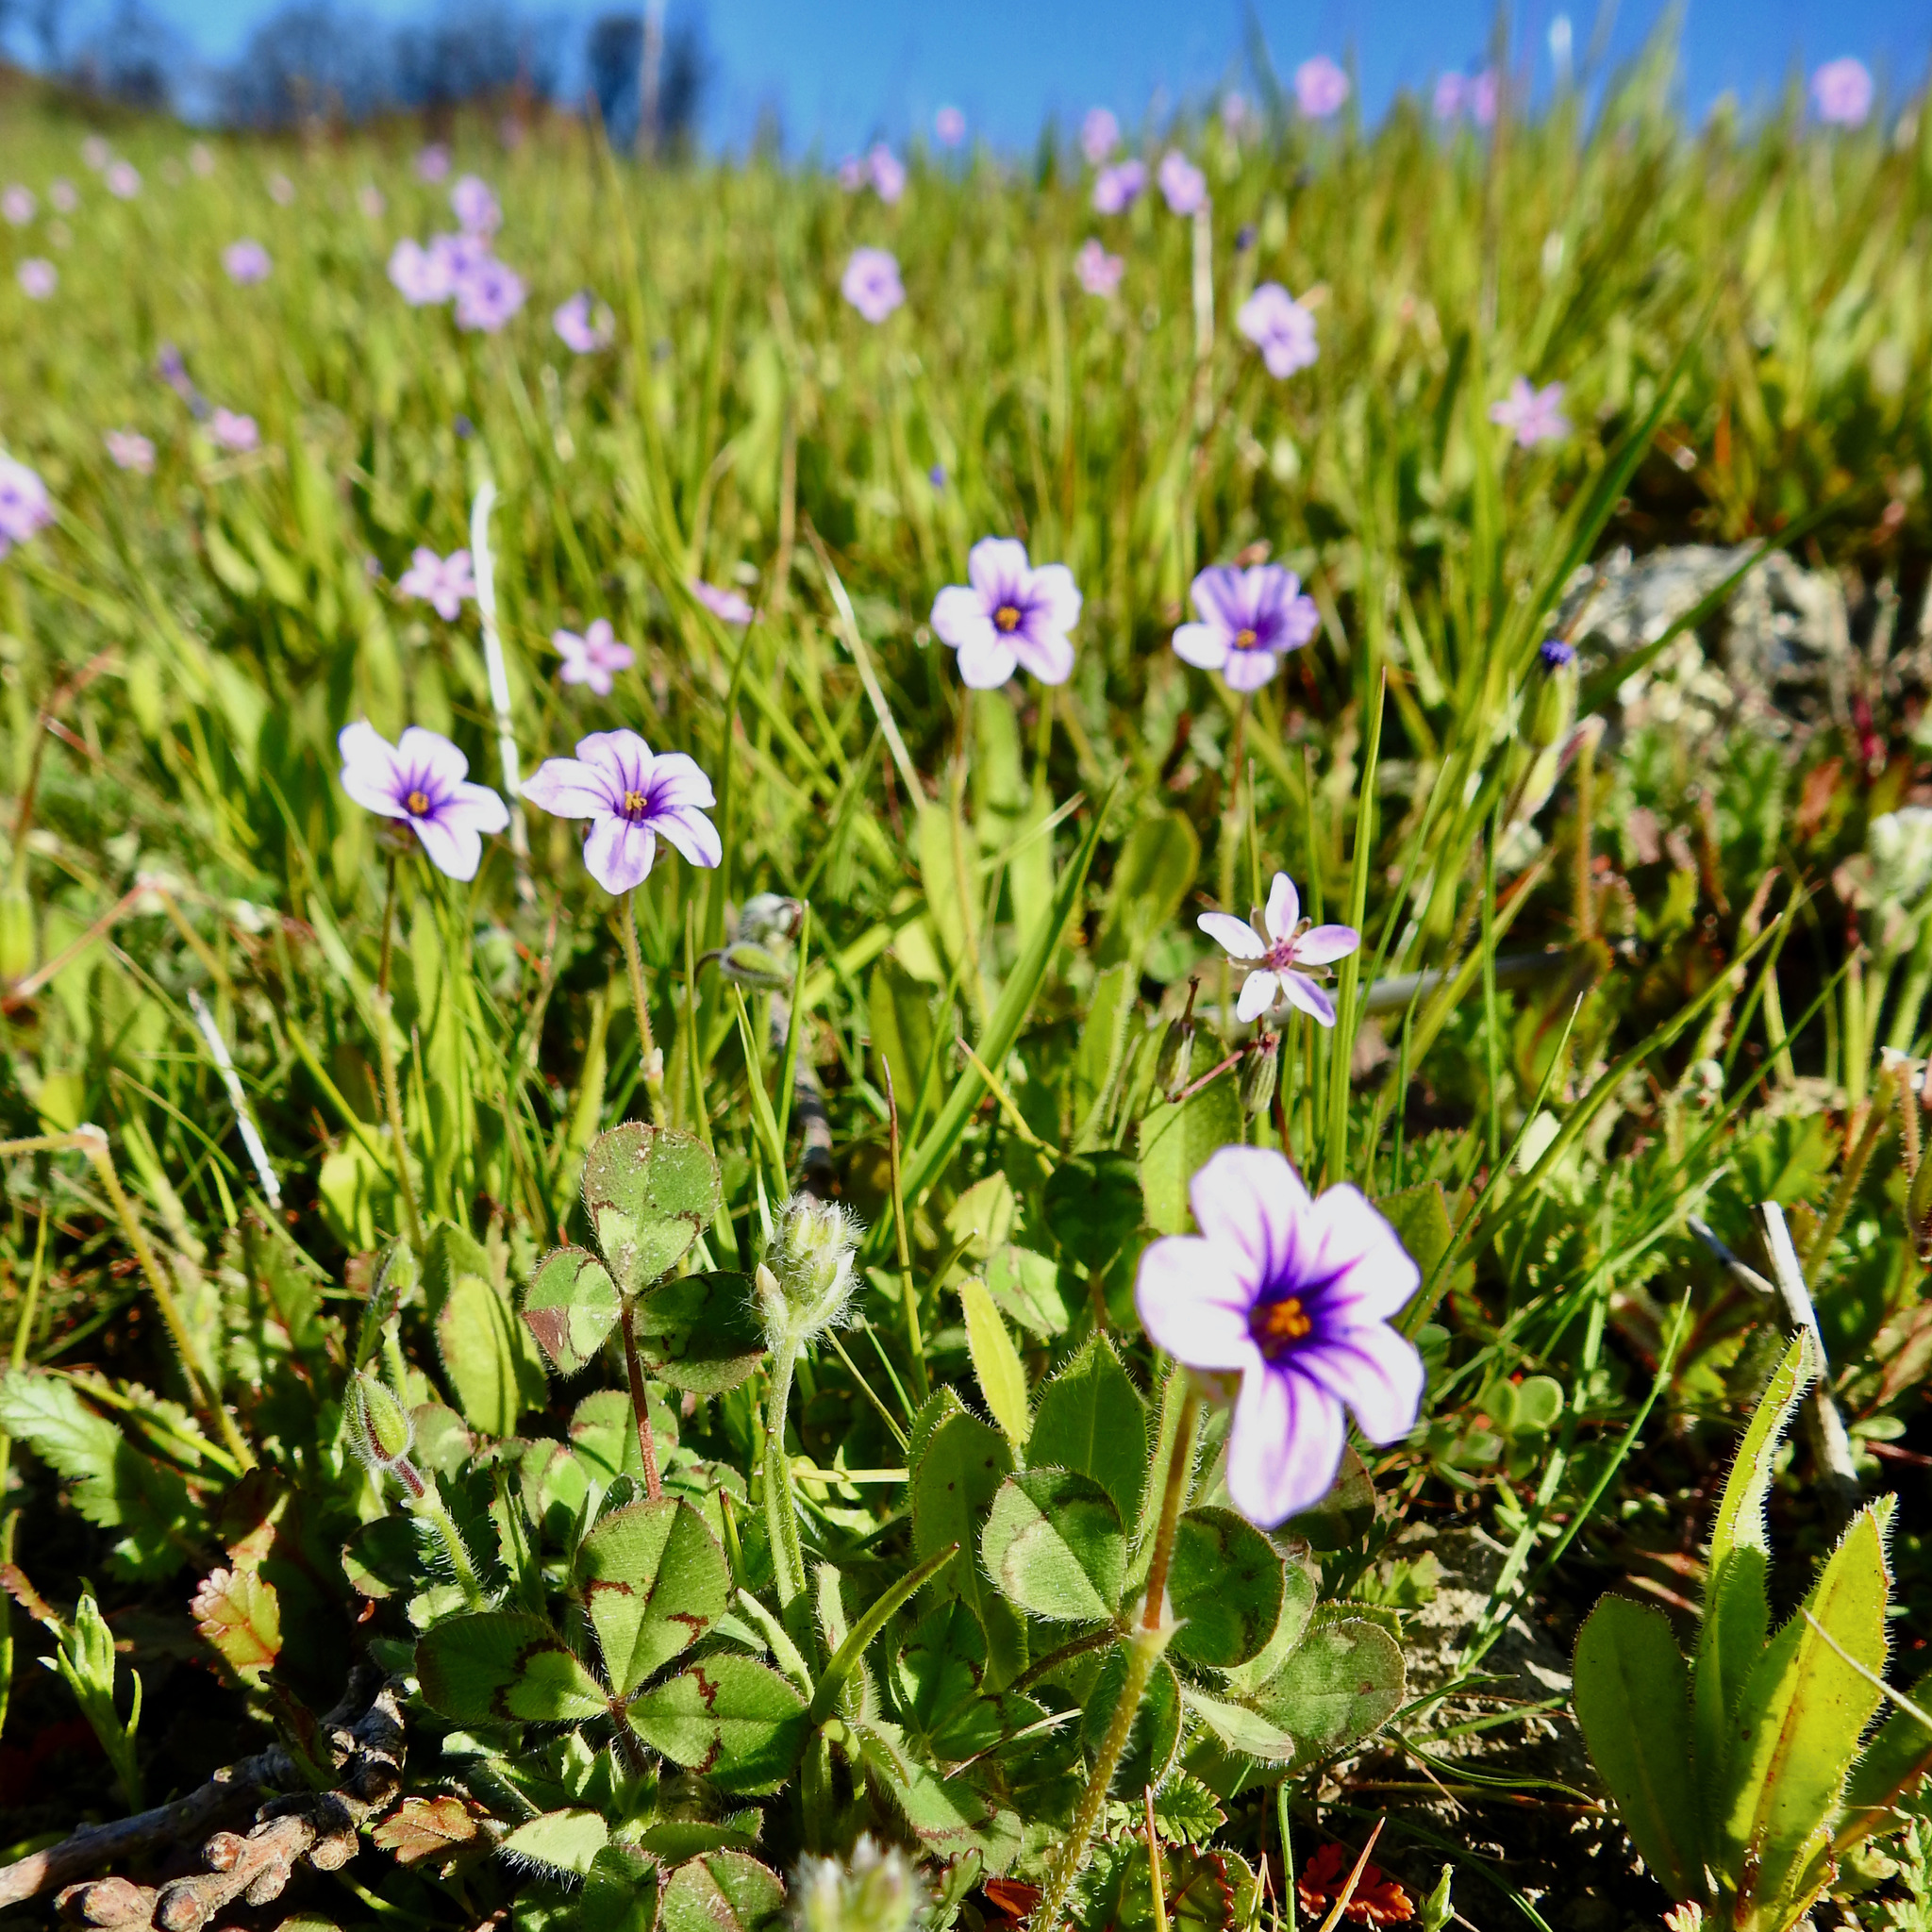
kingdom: Plantae
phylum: Tracheophyta
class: Magnoliopsida
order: Geraniales
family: Geraniaceae
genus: Erodium
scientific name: Erodium botrys
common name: Mediterranean stork's-bill
